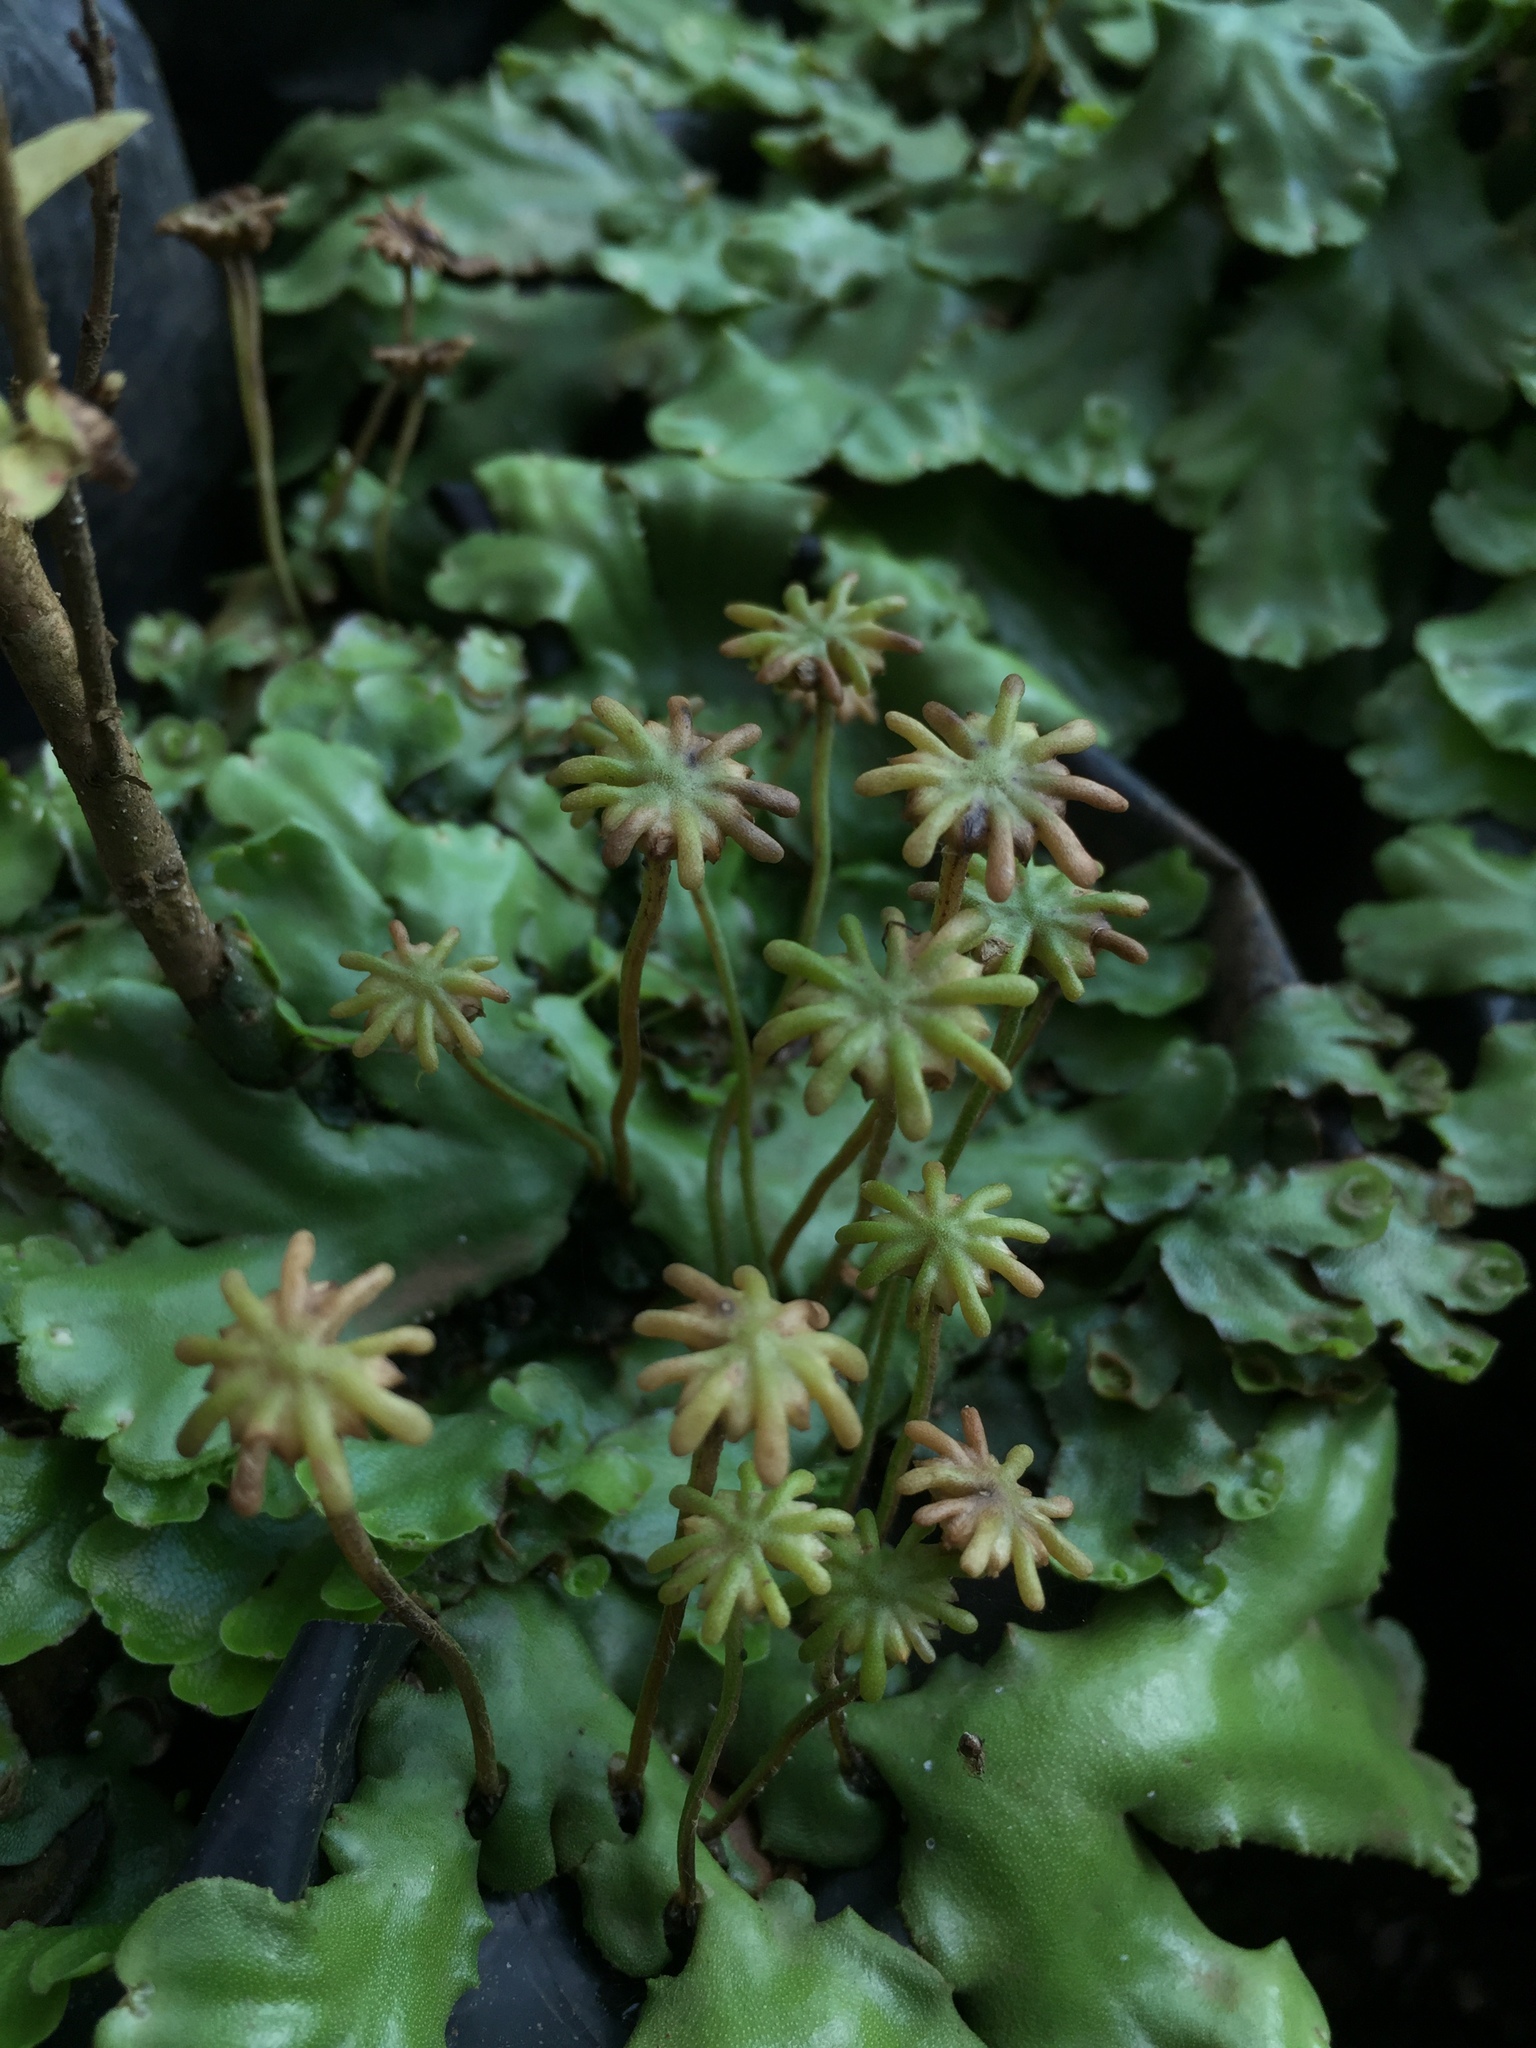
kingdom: Plantae
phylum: Marchantiophyta
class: Marchantiopsida
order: Marchantiales
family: Marchantiaceae
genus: Marchantia
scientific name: Marchantia berteroana
